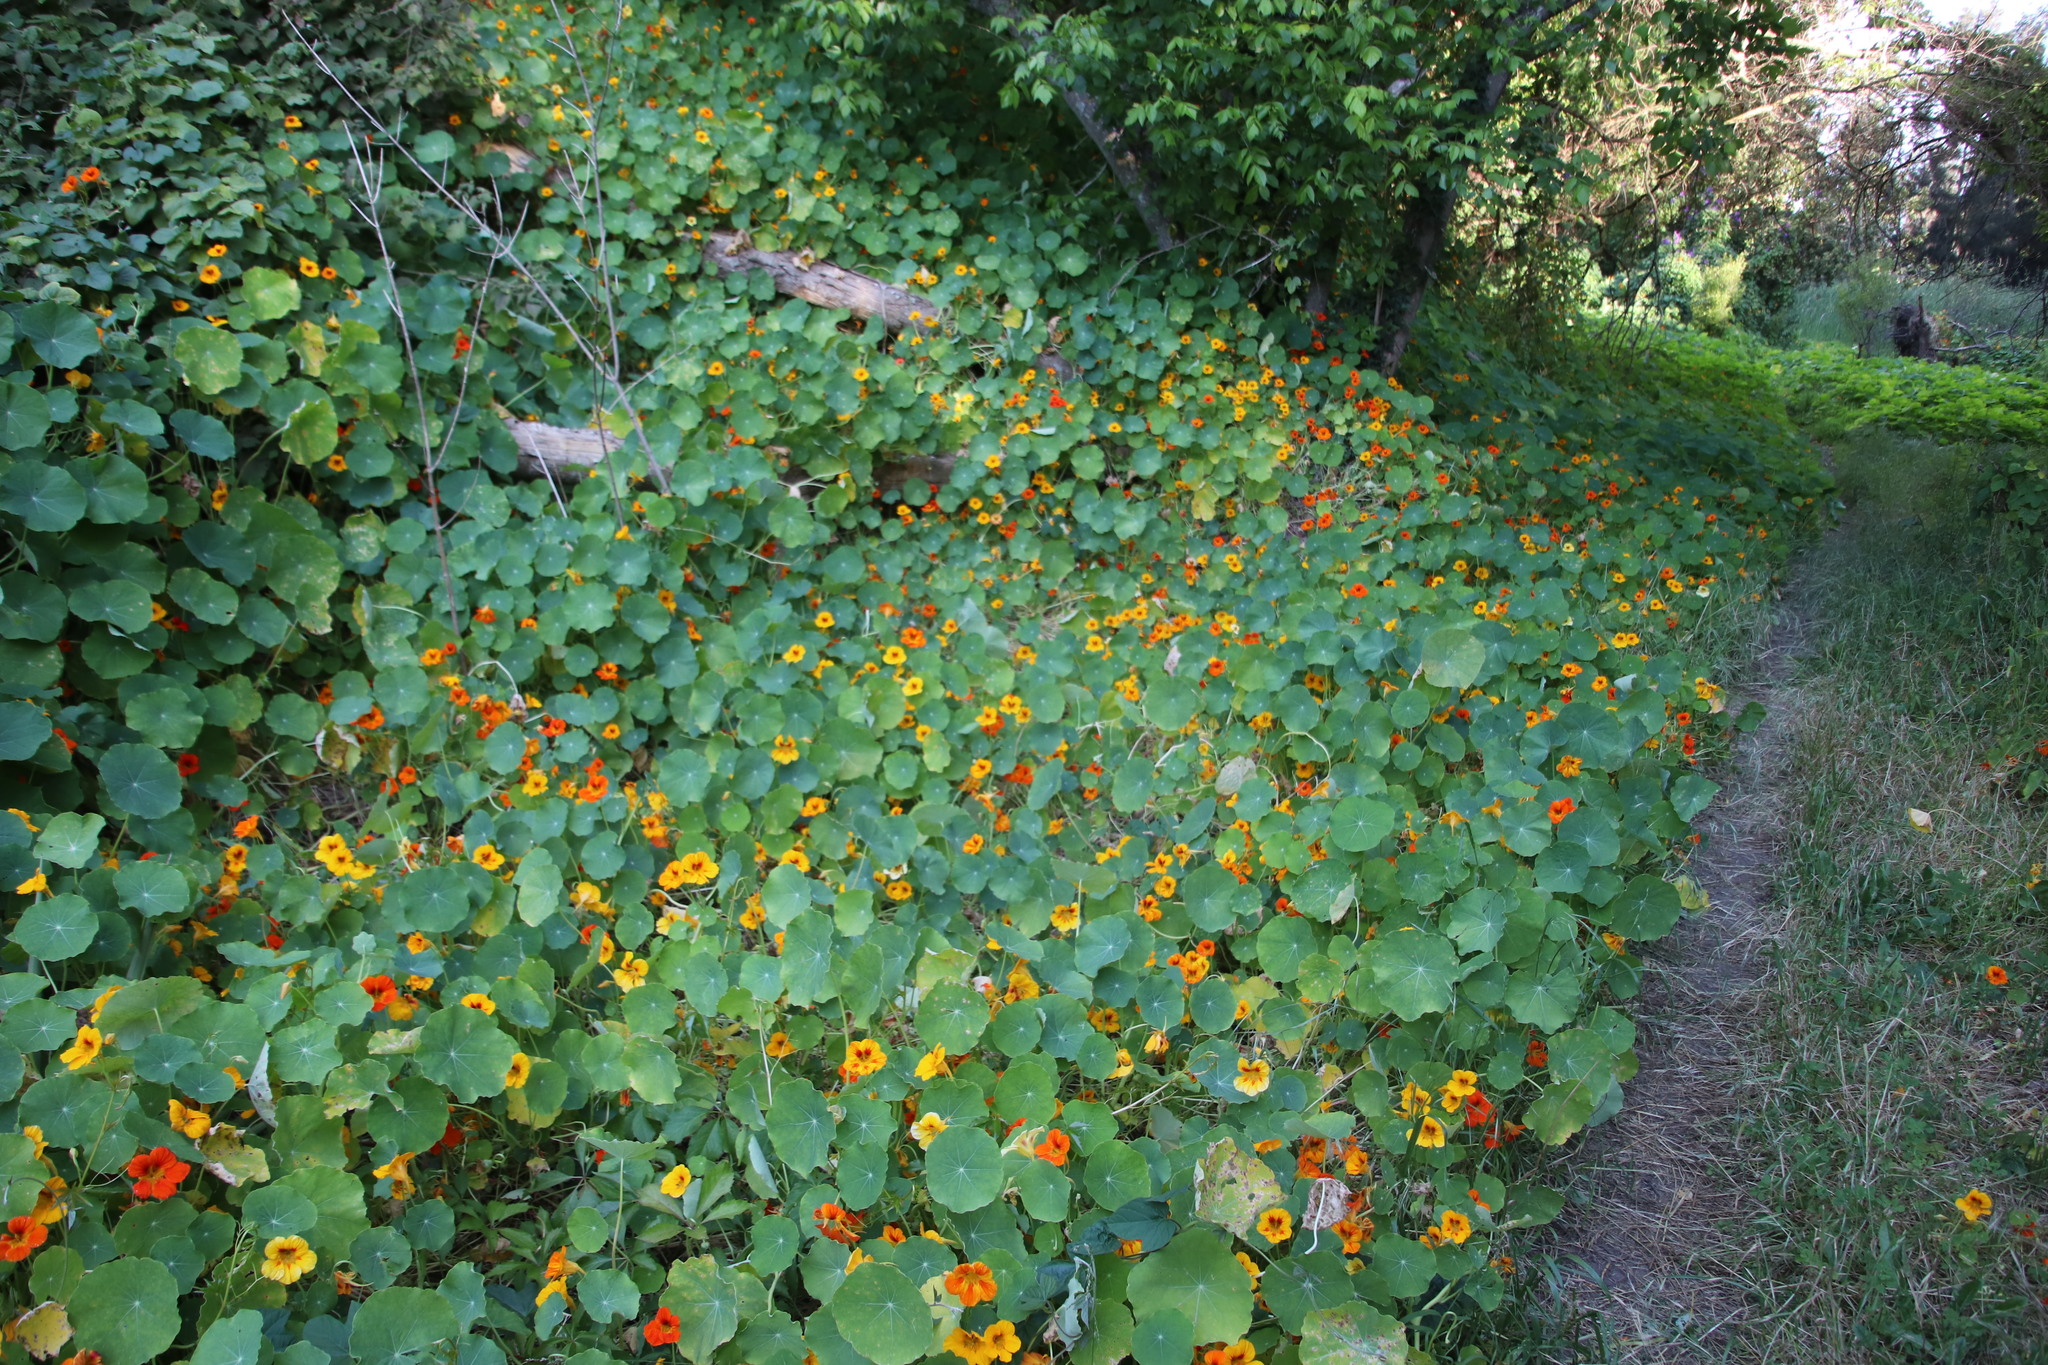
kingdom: Plantae
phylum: Tracheophyta
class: Magnoliopsida
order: Brassicales
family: Tropaeolaceae
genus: Tropaeolum
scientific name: Tropaeolum majus
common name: Nasturtium
